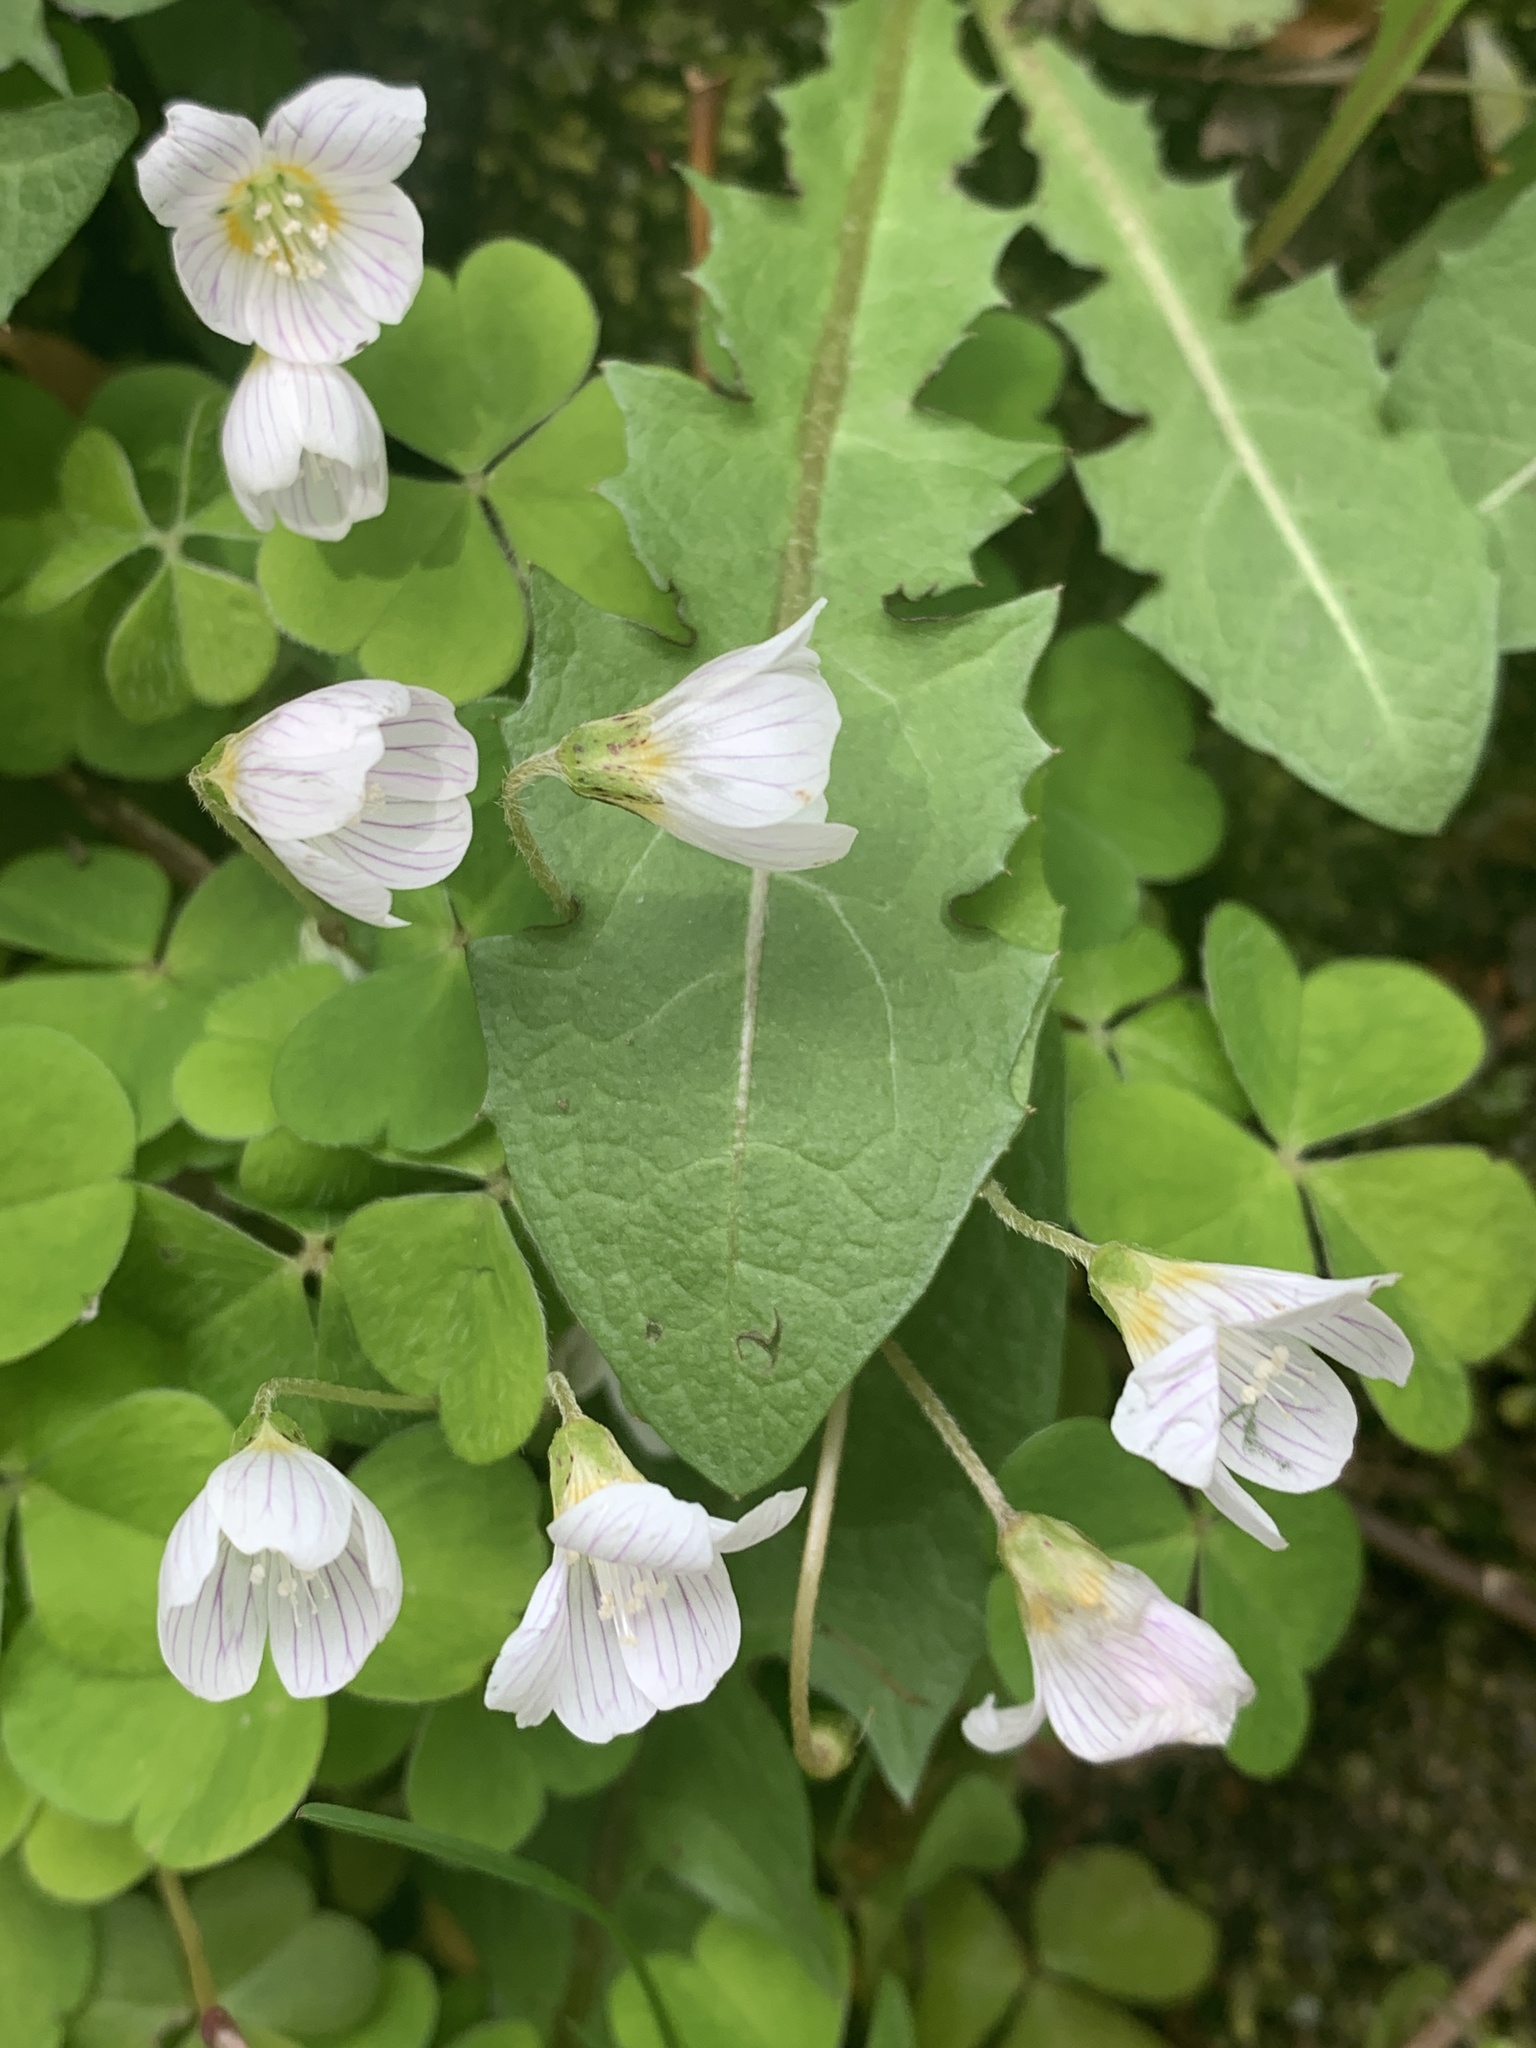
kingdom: Plantae
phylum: Tracheophyta
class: Magnoliopsida
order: Oxalidales
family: Oxalidaceae
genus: Oxalis
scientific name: Oxalis acetosella
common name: Wood-sorrel
